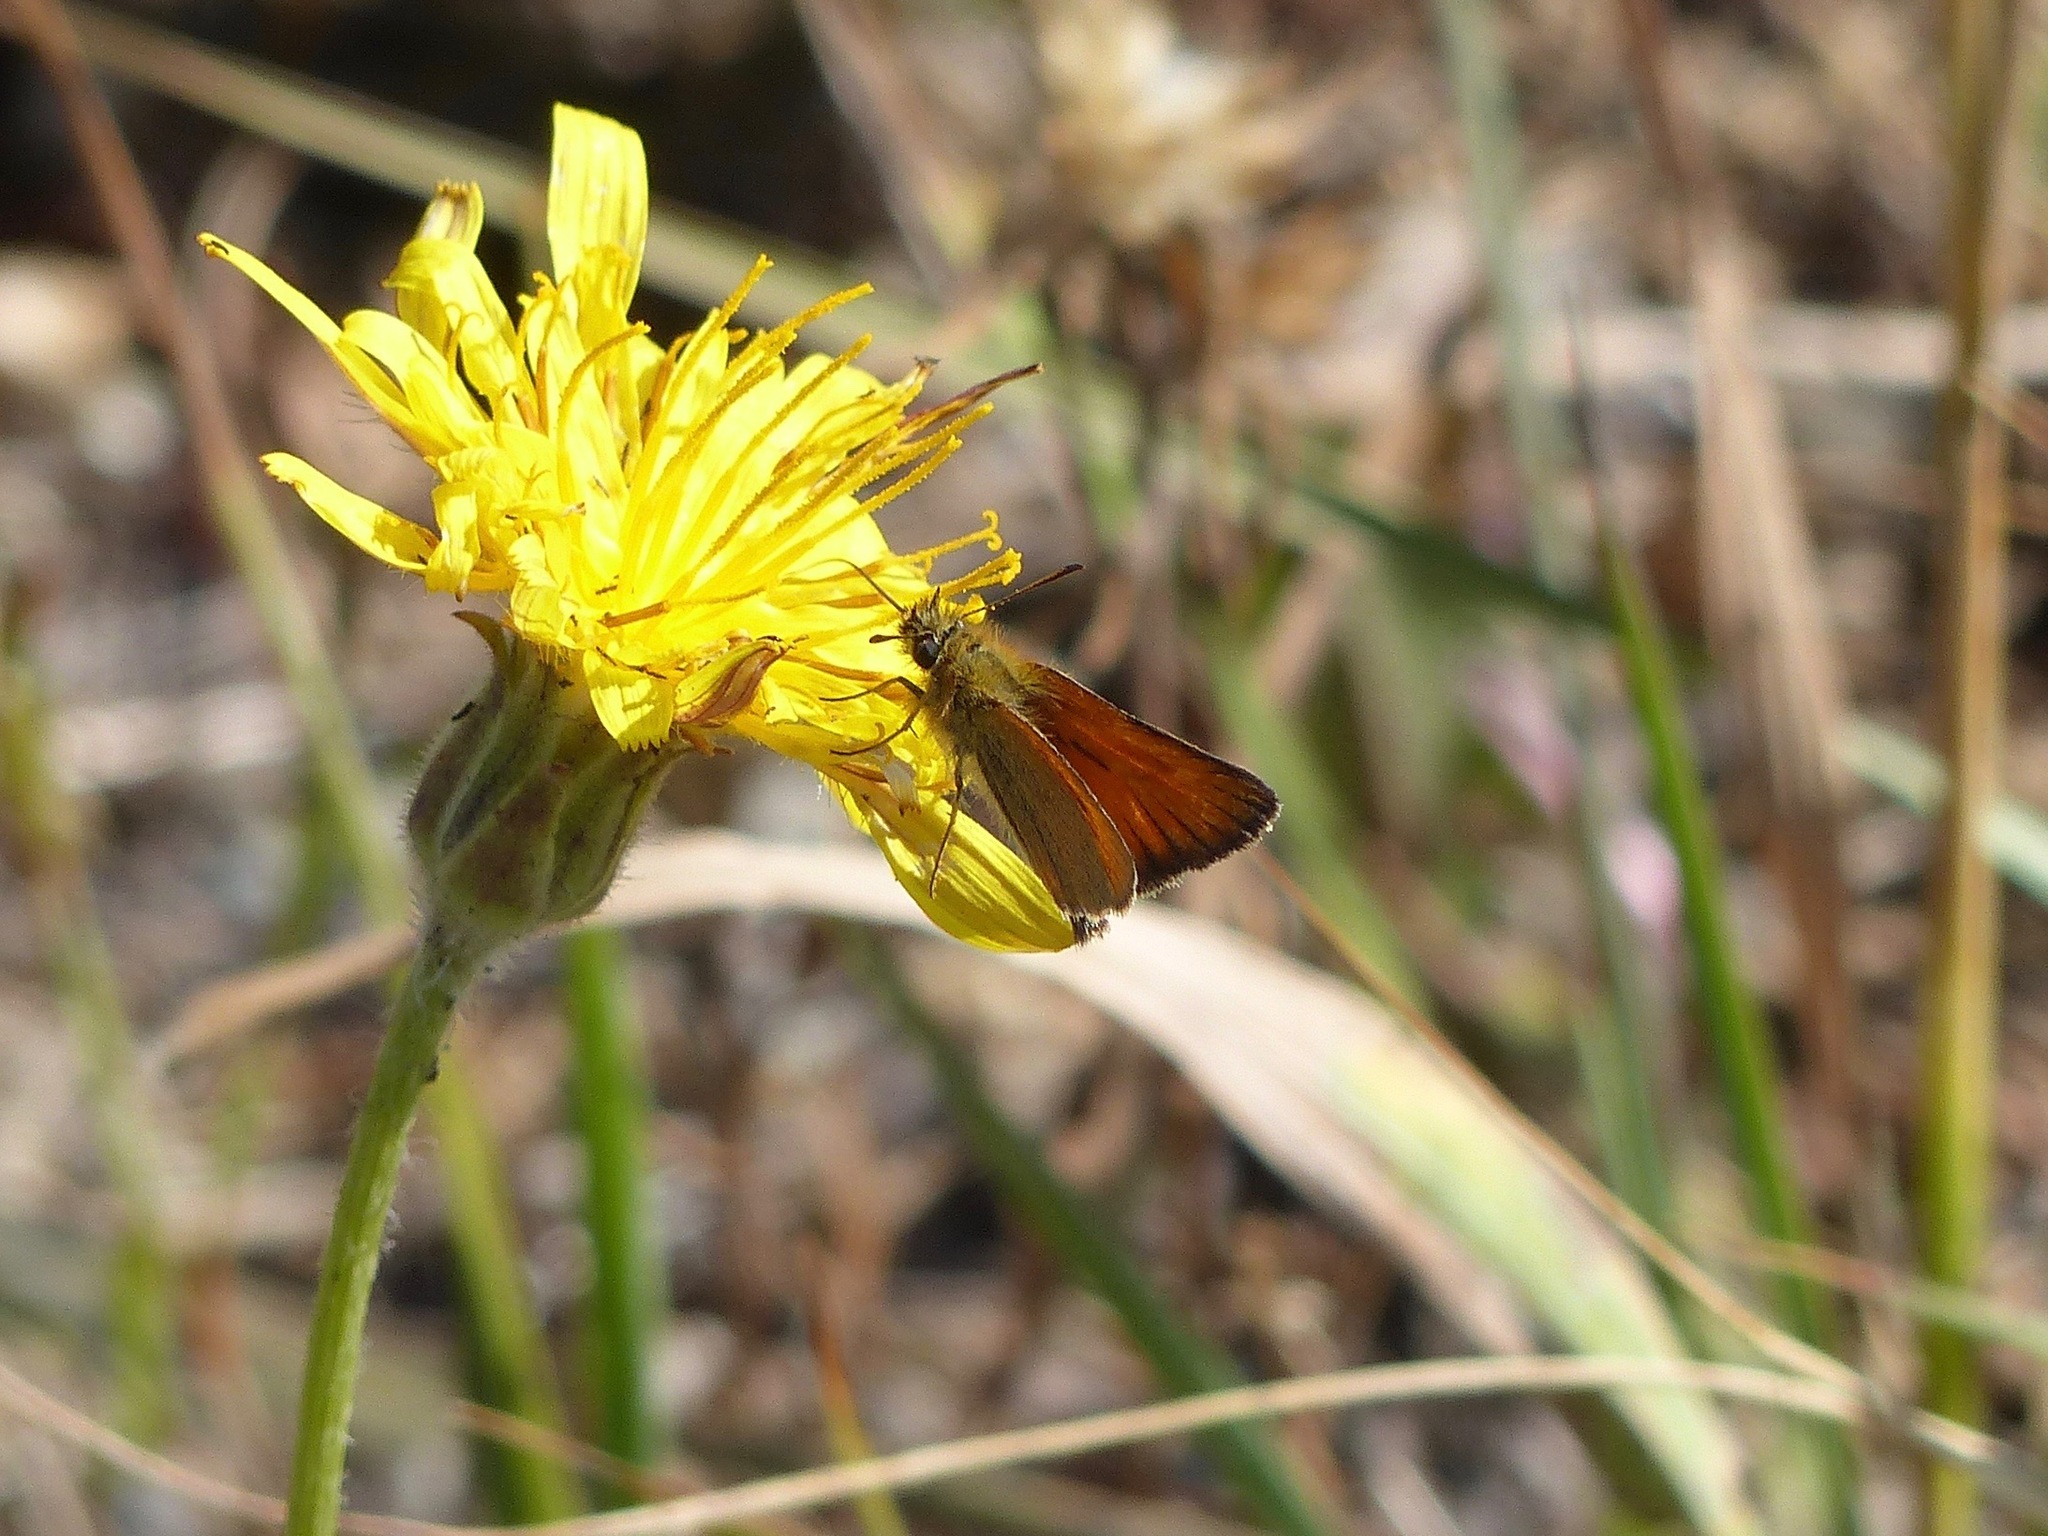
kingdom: Animalia
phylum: Arthropoda
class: Insecta
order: Lepidoptera
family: Hesperiidae
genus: Thymelicus
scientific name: Thymelicus lineola
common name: Essex skipper
